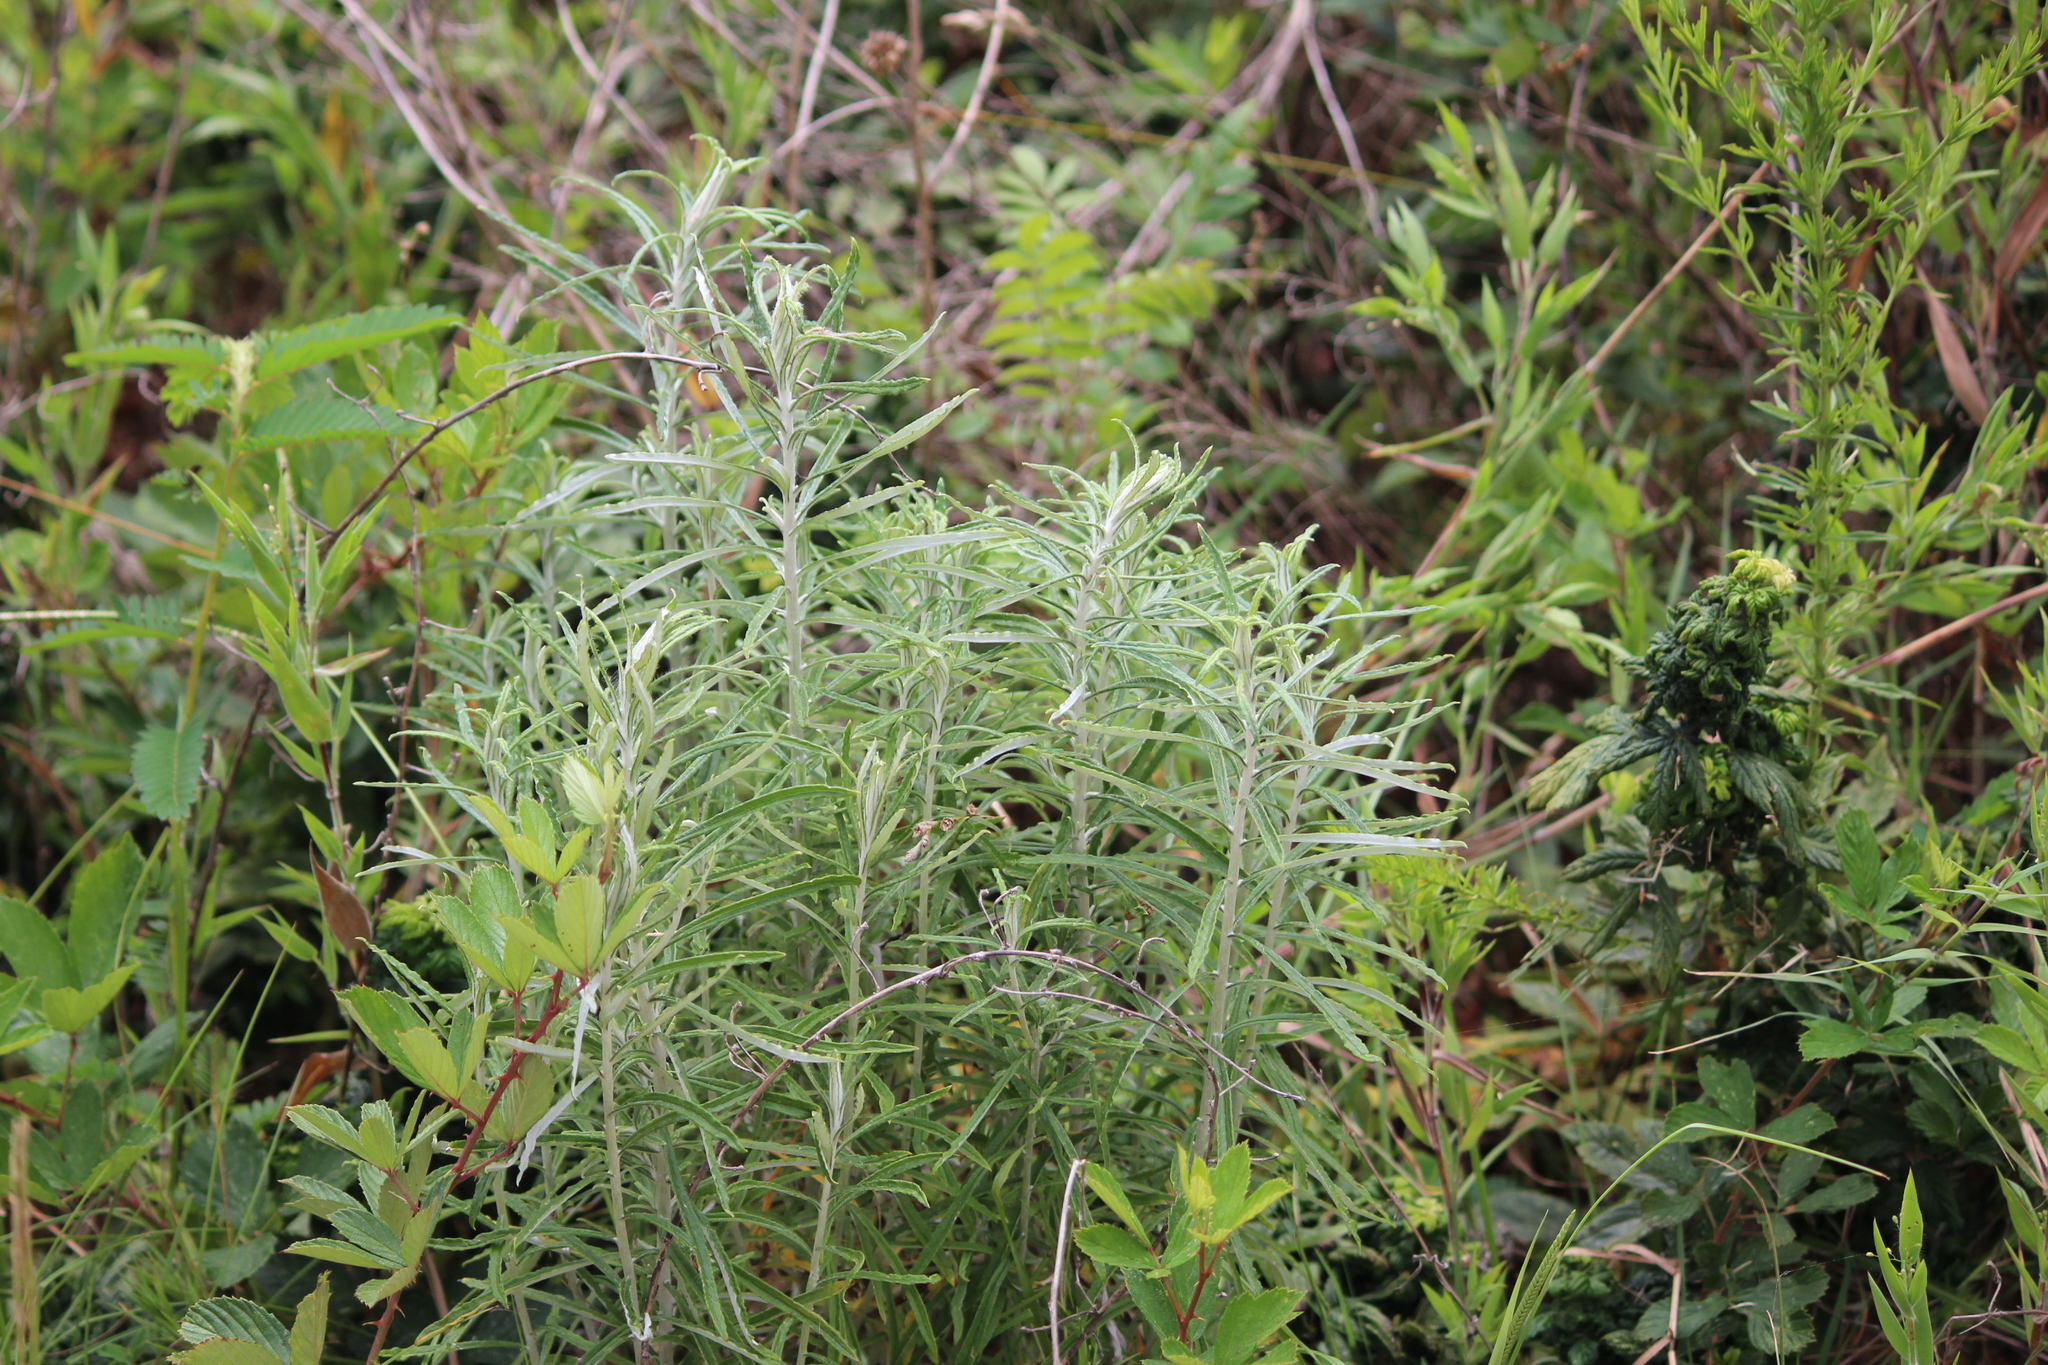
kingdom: Plantae
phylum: Tracheophyta
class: Magnoliopsida
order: Asterales
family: Asteraceae
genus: Pseudognaphalium
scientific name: Pseudognaphalium obtusifolium
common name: Eastern rabbit-tobacco
